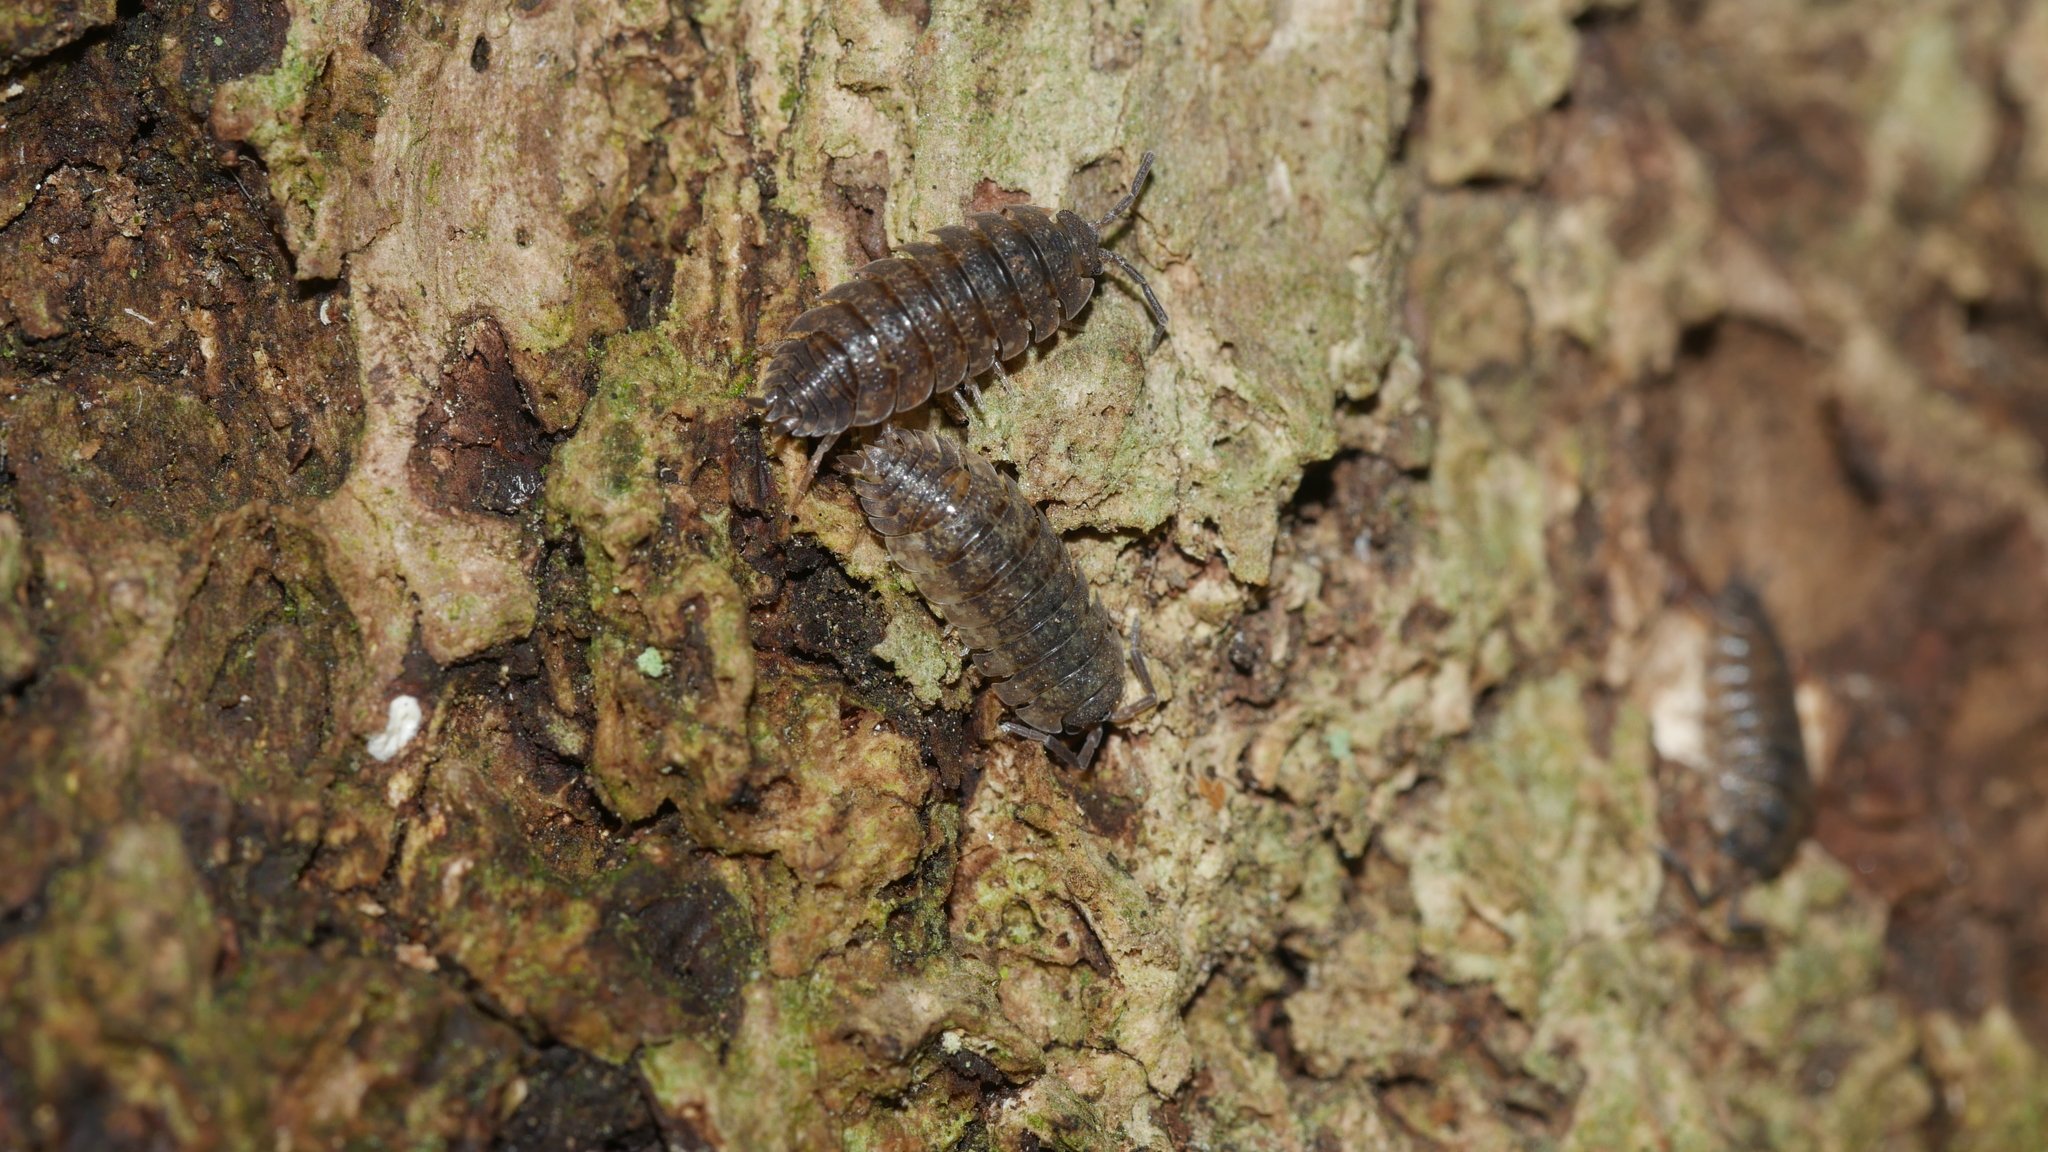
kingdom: Animalia
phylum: Arthropoda
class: Malacostraca
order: Isopoda
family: Porcellionidae
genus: Porcellio
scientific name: Porcellio scaber
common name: Common rough woodlouse
